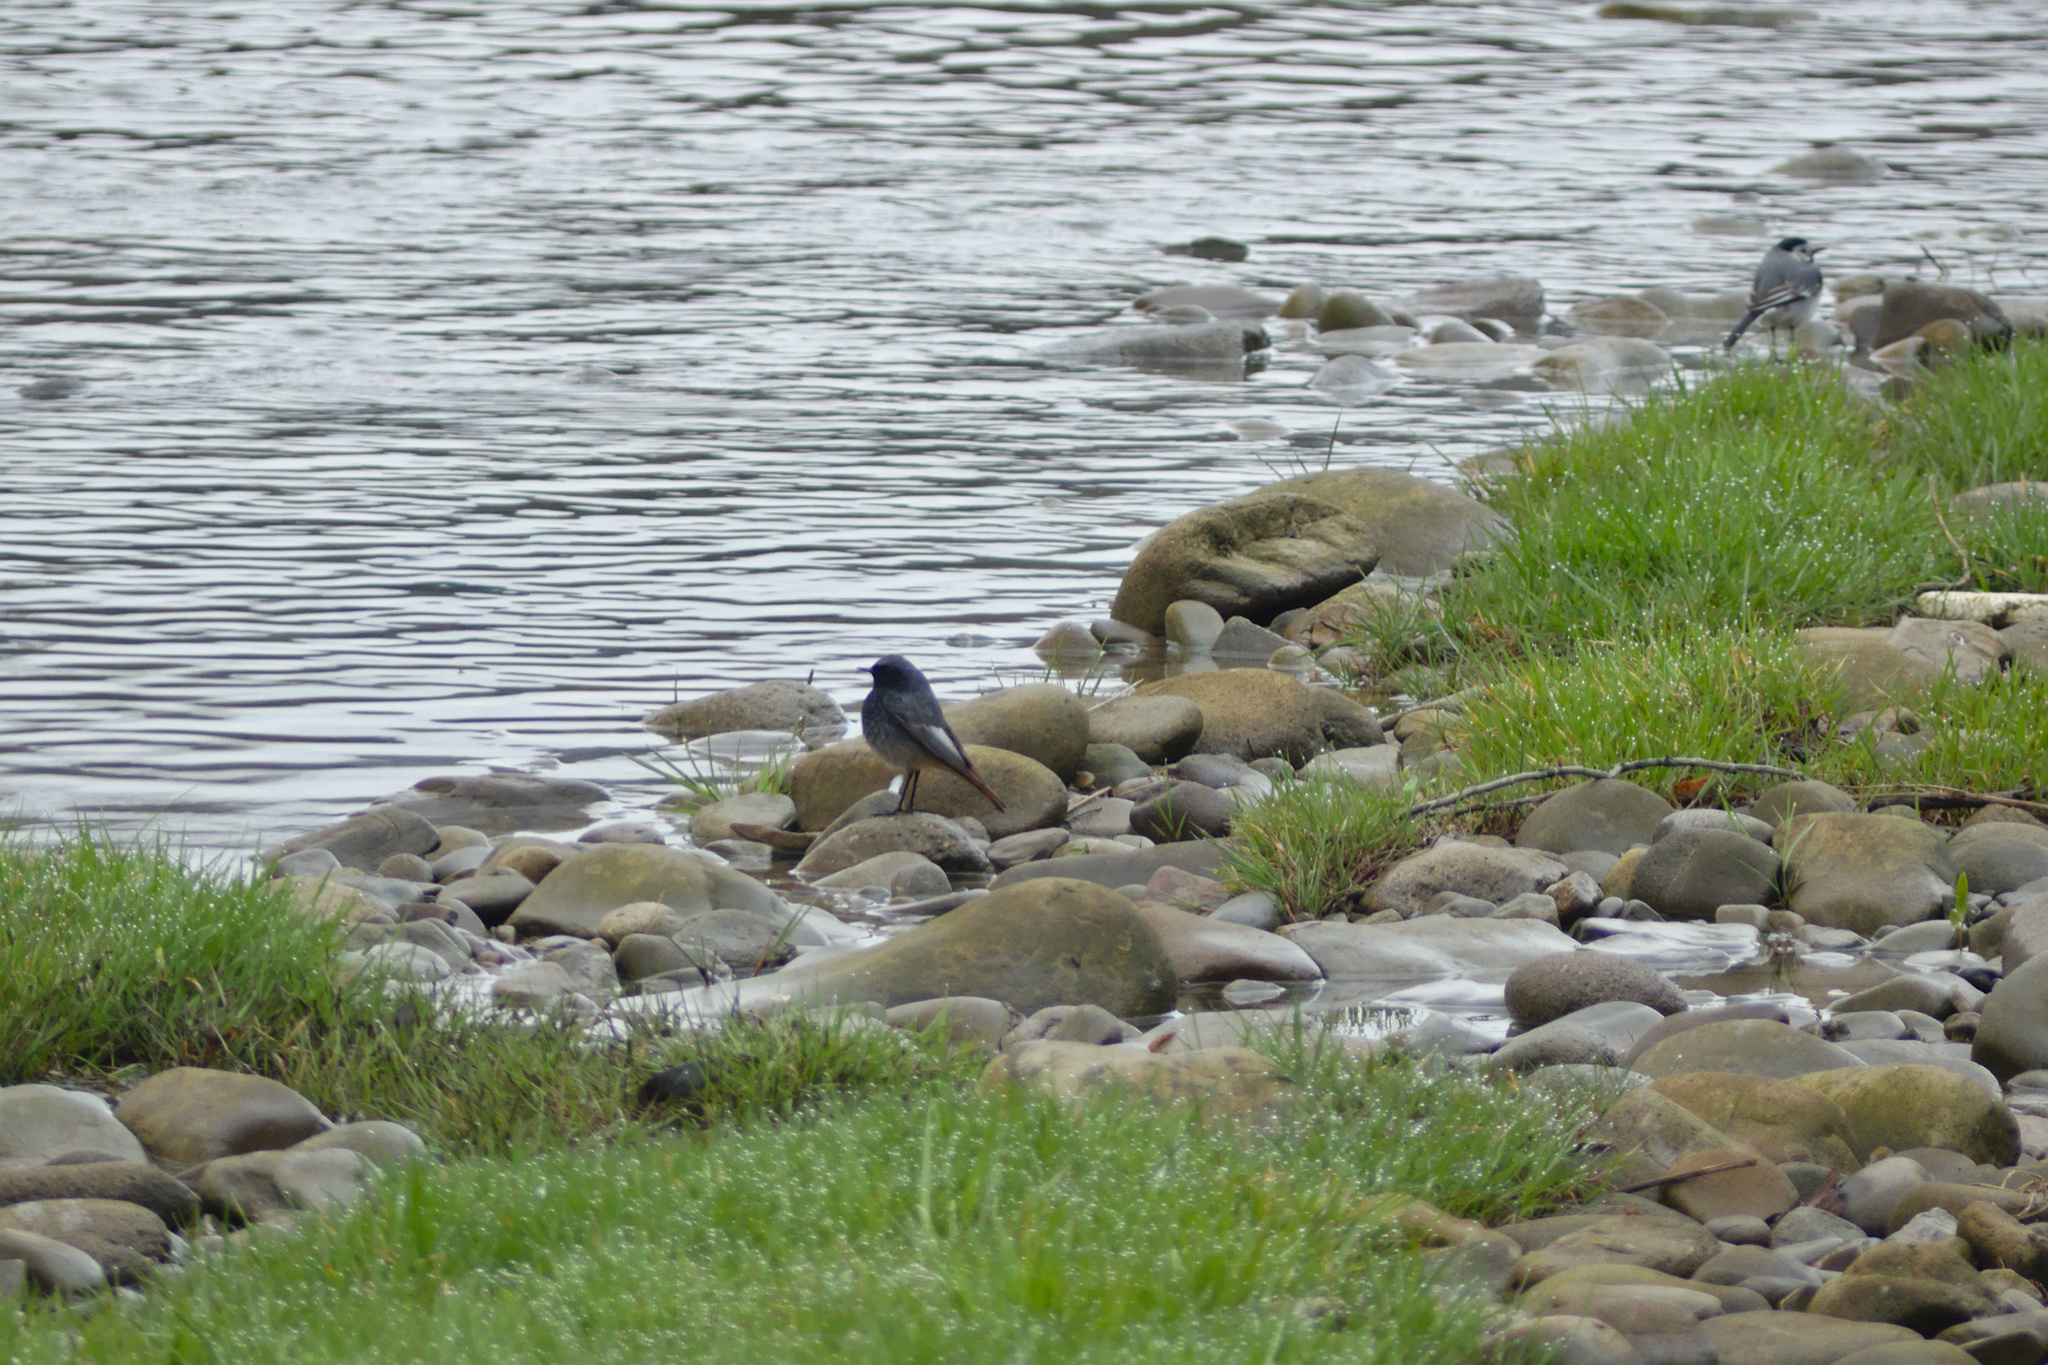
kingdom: Animalia
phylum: Chordata
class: Aves
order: Passeriformes
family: Muscicapidae
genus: Phoenicurus
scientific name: Phoenicurus ochruros
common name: Black redstart
